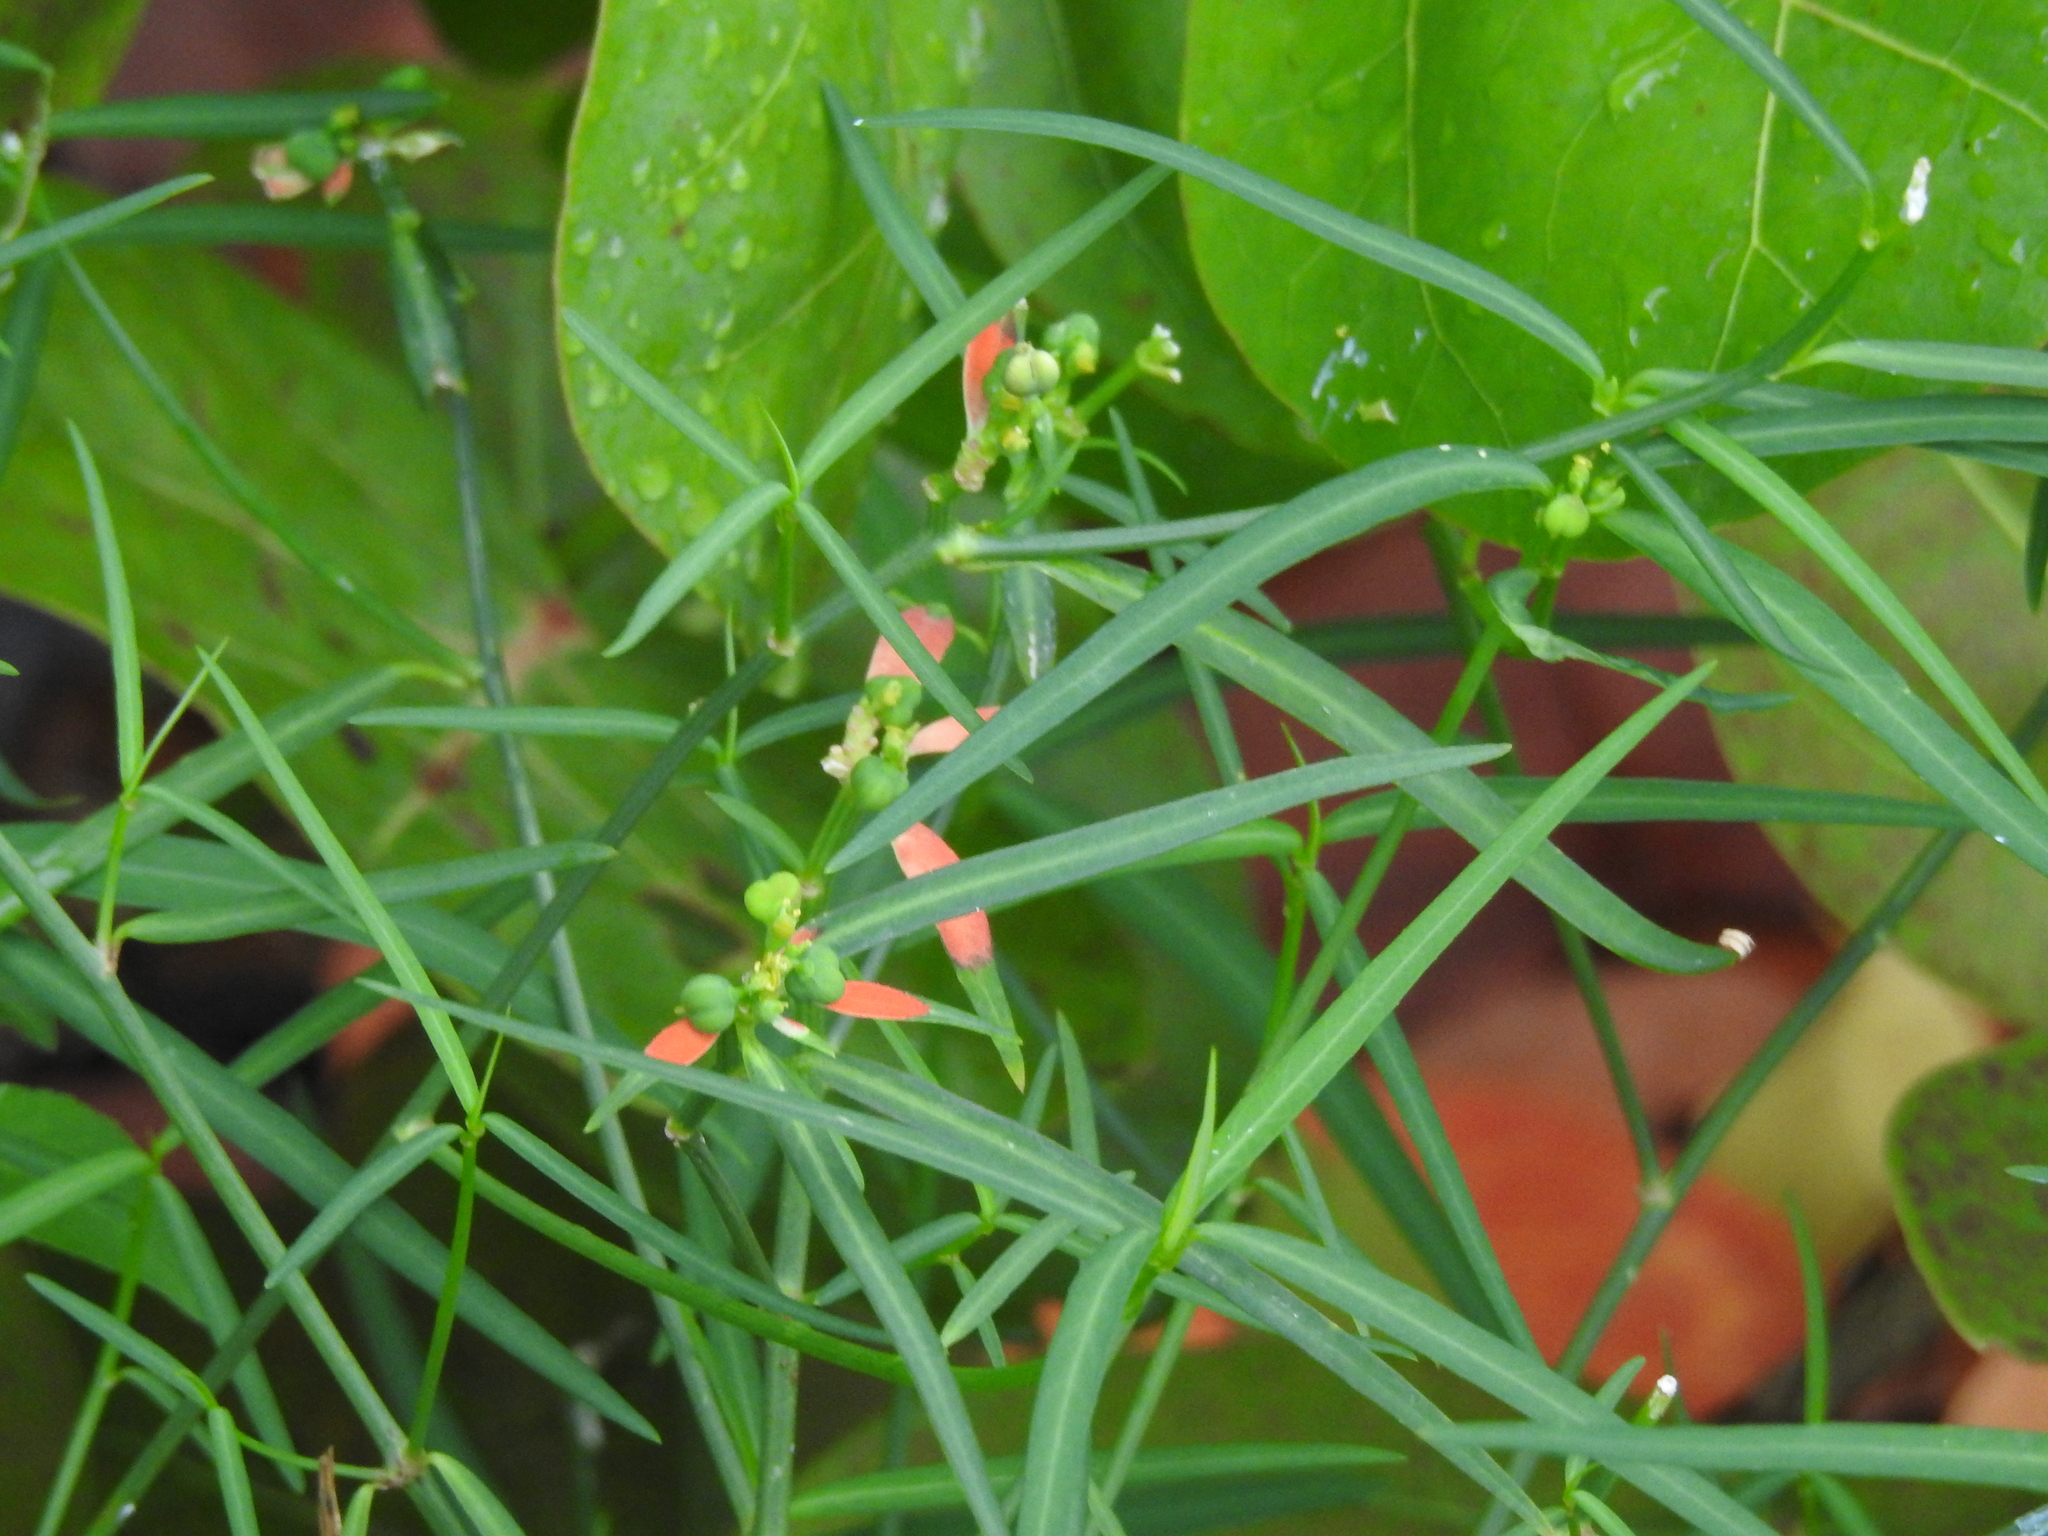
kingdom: Plantae
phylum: Tracheophyta
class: Magnoliopsida
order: Malpighiales
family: Euphorbiaceae
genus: Euphorbia
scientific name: Euphorbia heterophylla
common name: Mexican fireplant
